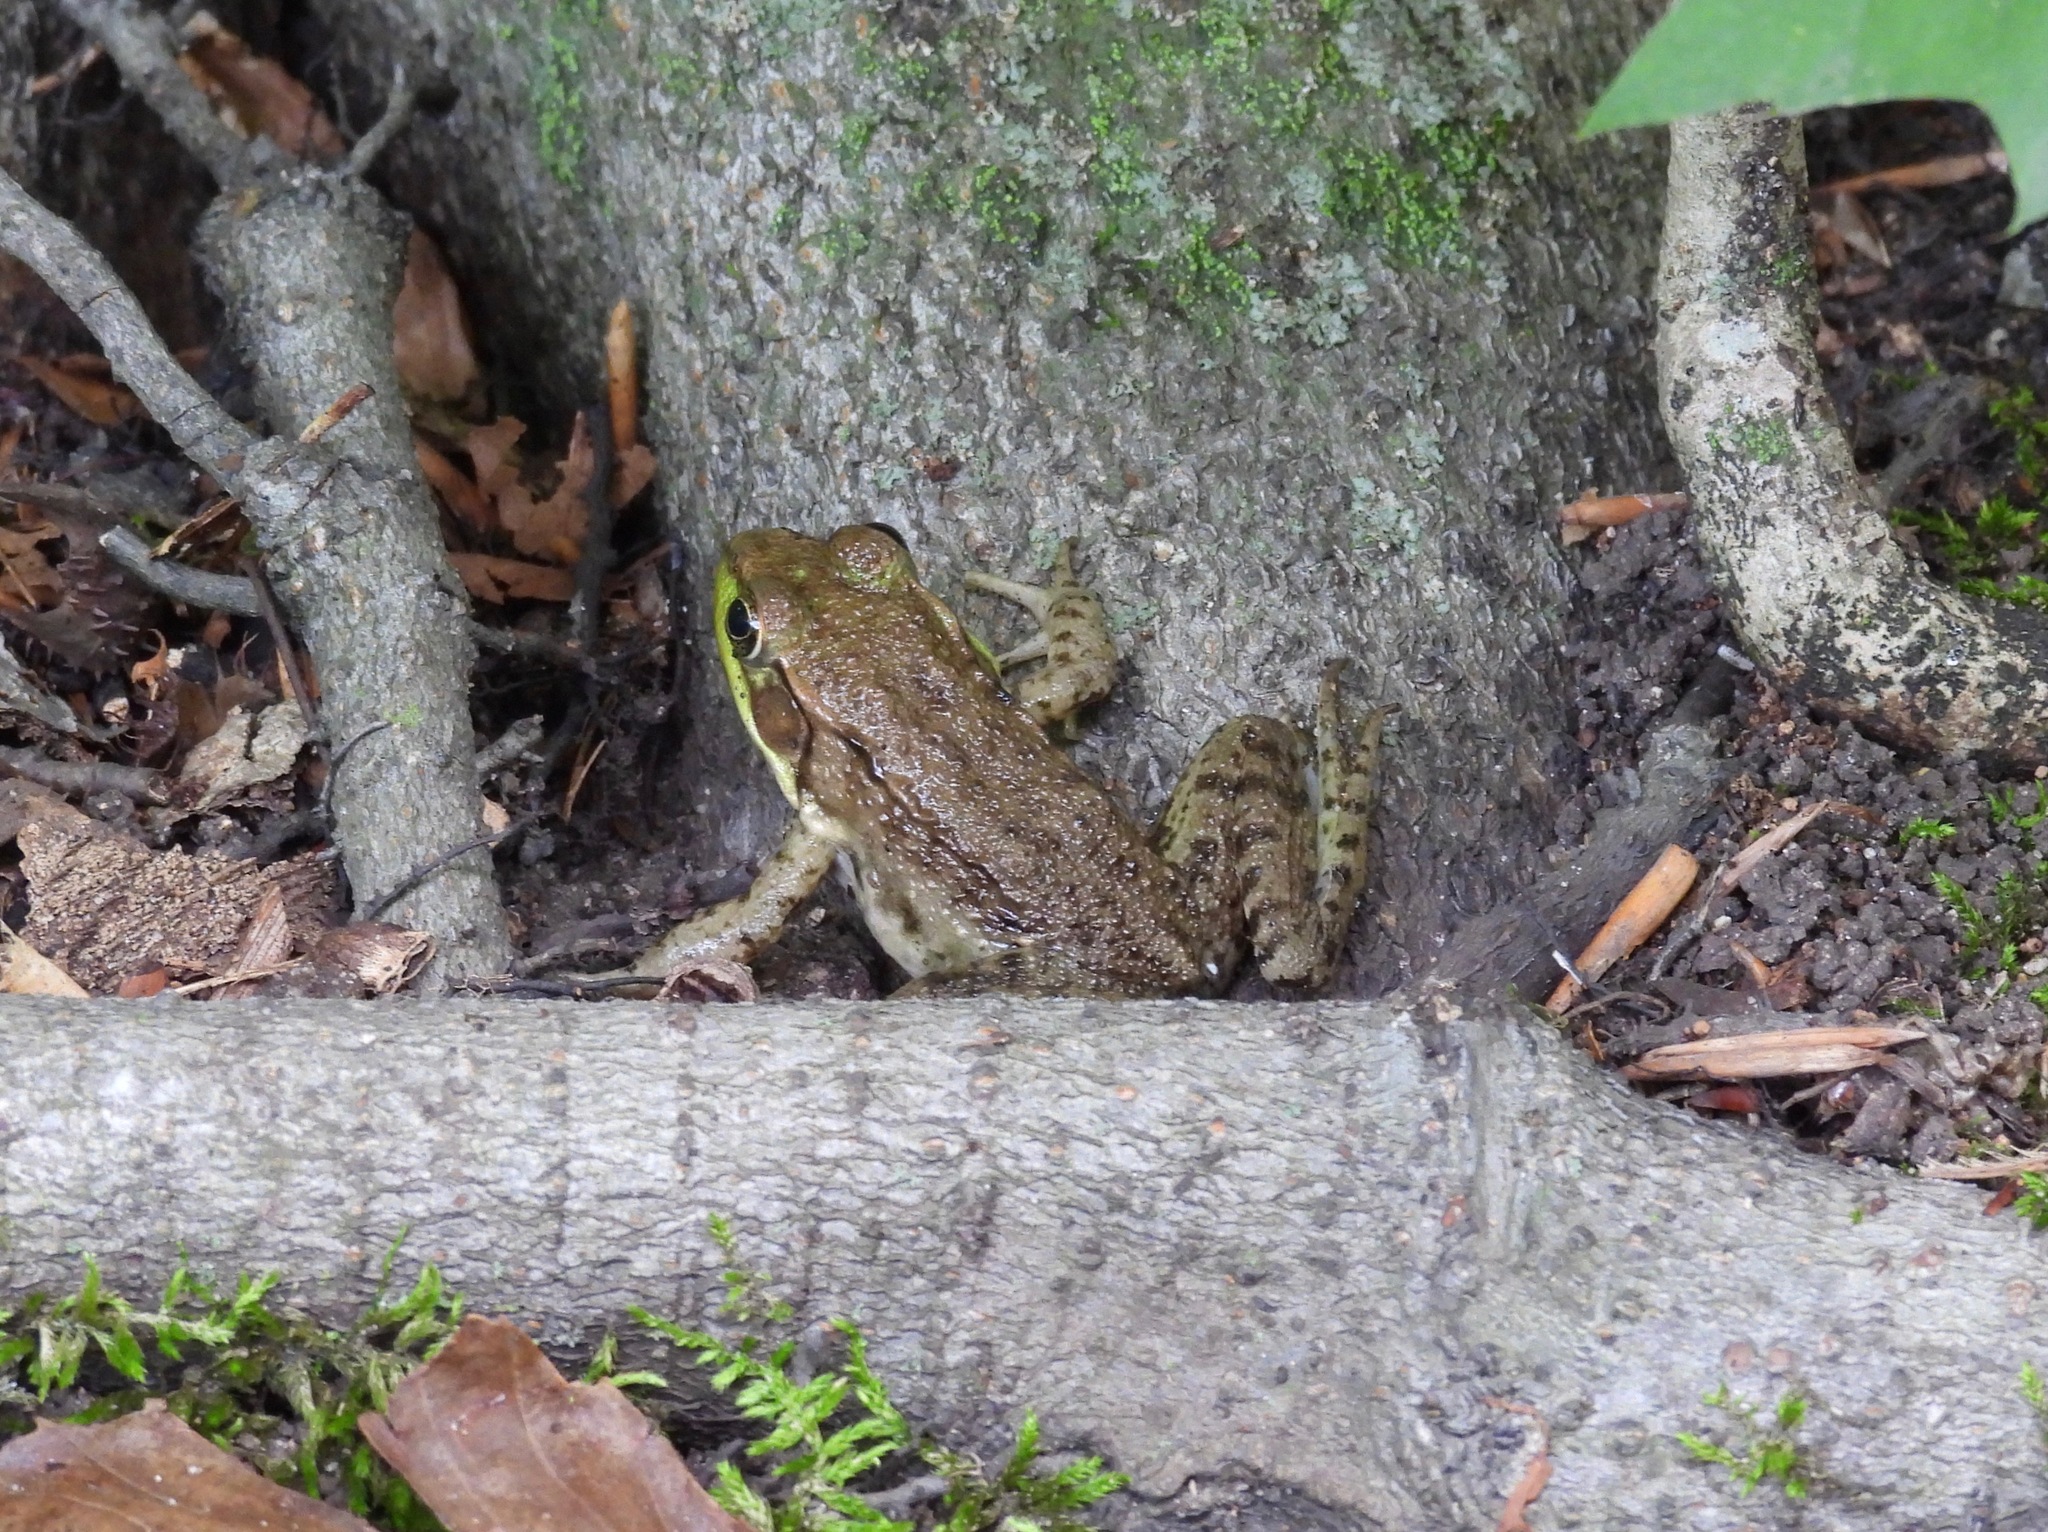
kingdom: Animalia
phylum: Chordata
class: Amphibia
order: Anura
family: Ranidae
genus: Lithobates
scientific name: Lithobates clamitans
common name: Green frog
